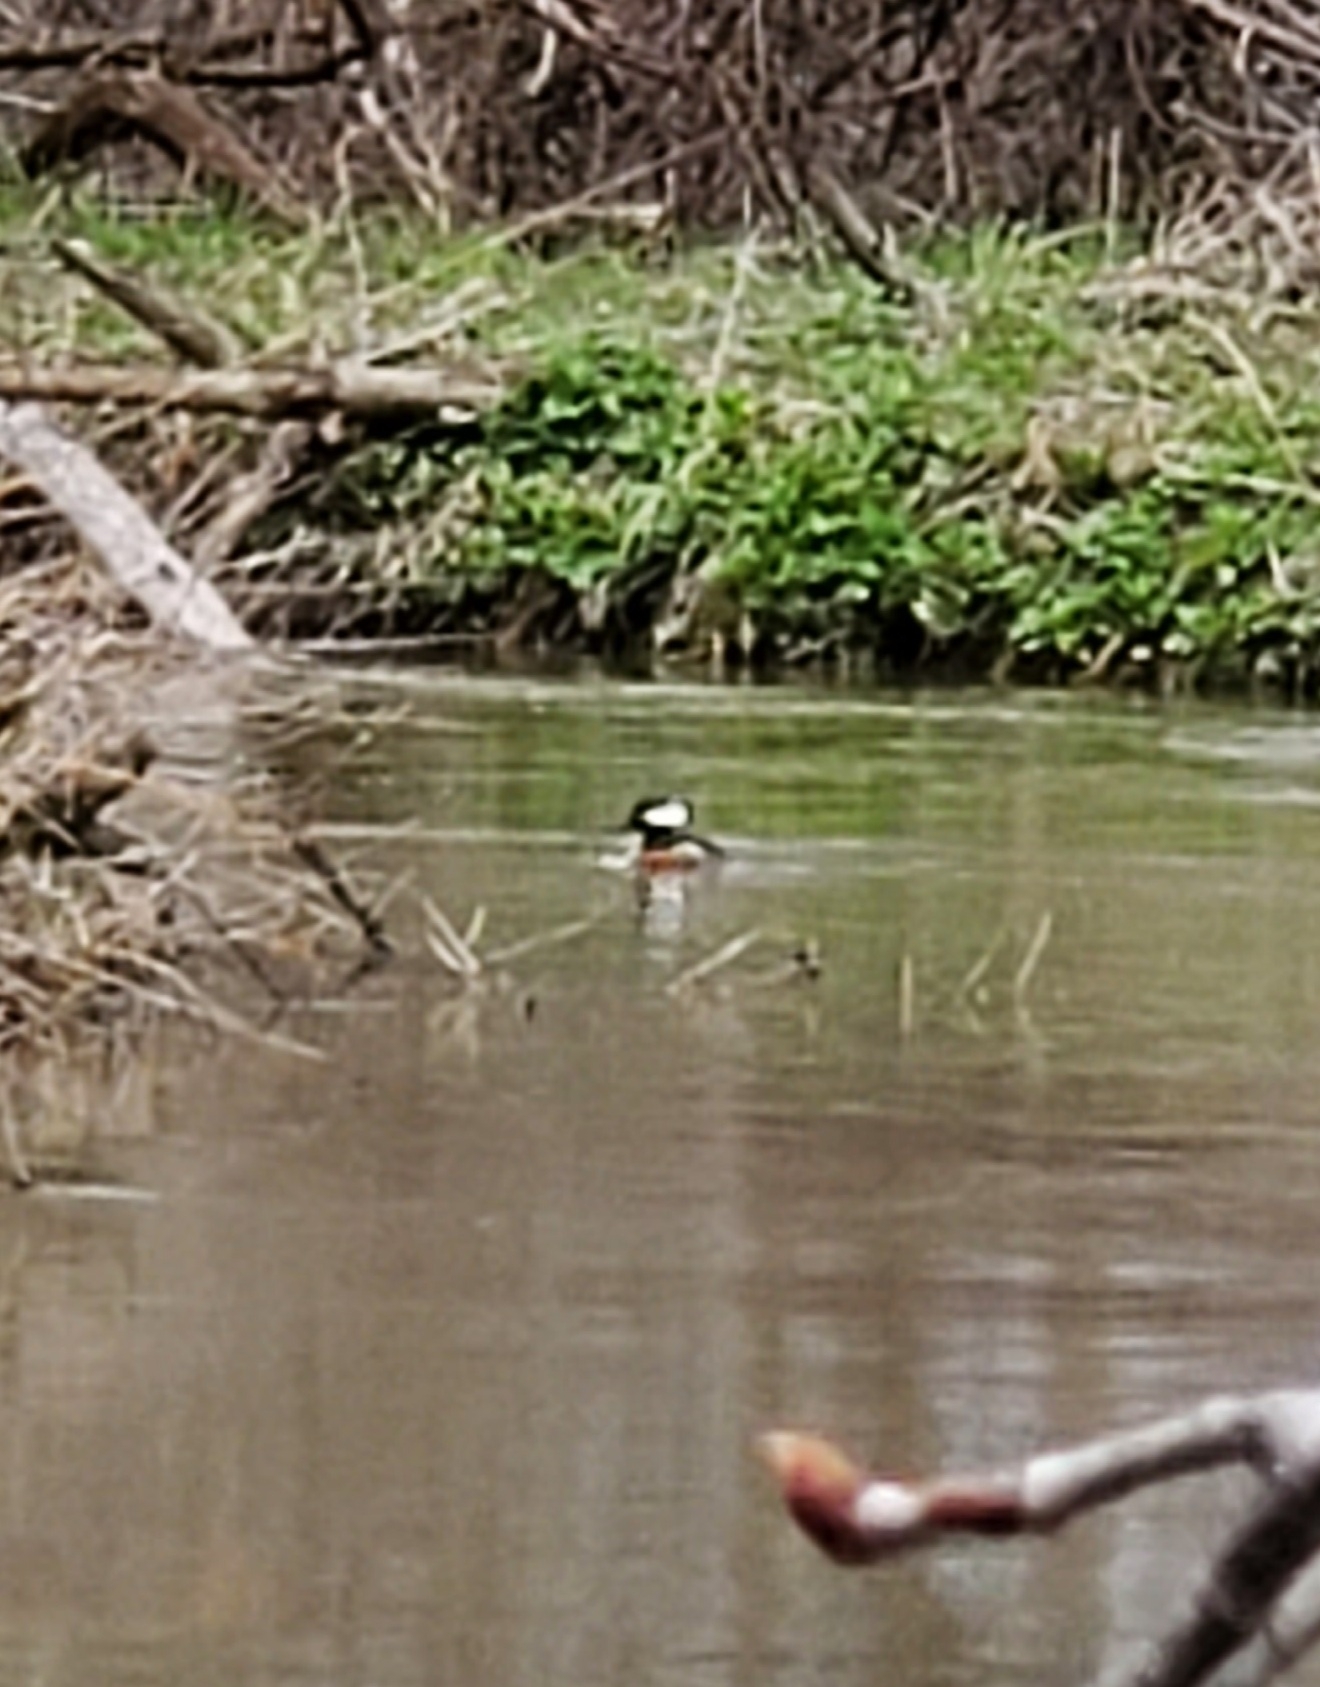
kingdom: Animalia
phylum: Chordata
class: Aves
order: Anseriformes
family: Anatidae
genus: Lophodytes
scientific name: Lophodytes cucullatus
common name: Hooded merganser
